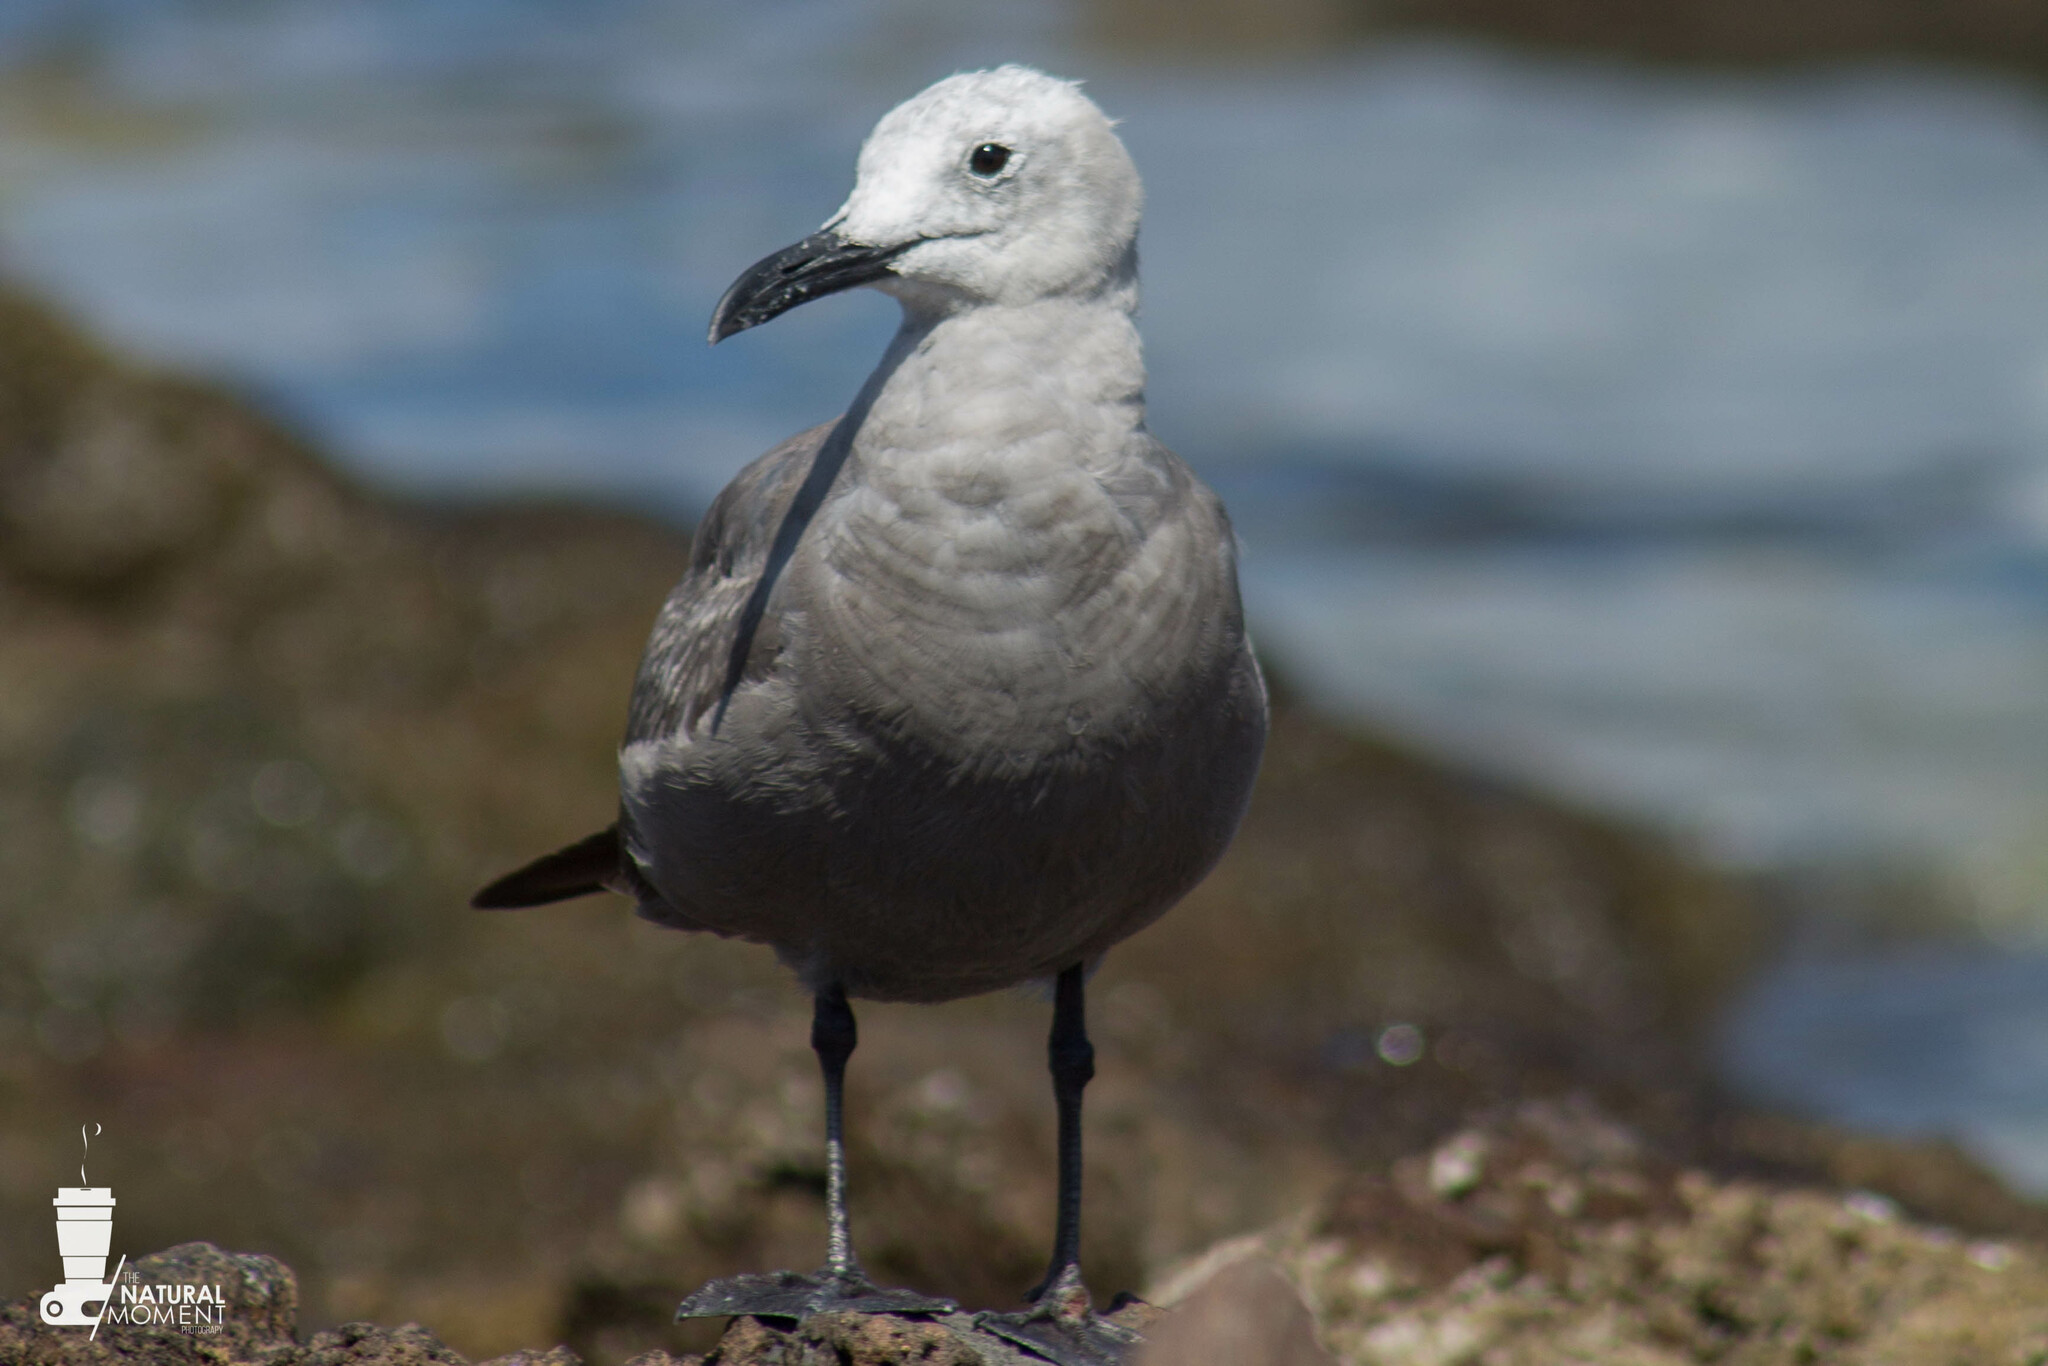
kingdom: Animalia
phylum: Chordata
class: Aves
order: Charadriiformes
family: Laridae
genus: Leucophaeus
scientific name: Leucophaeus modestus
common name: Gray gull
